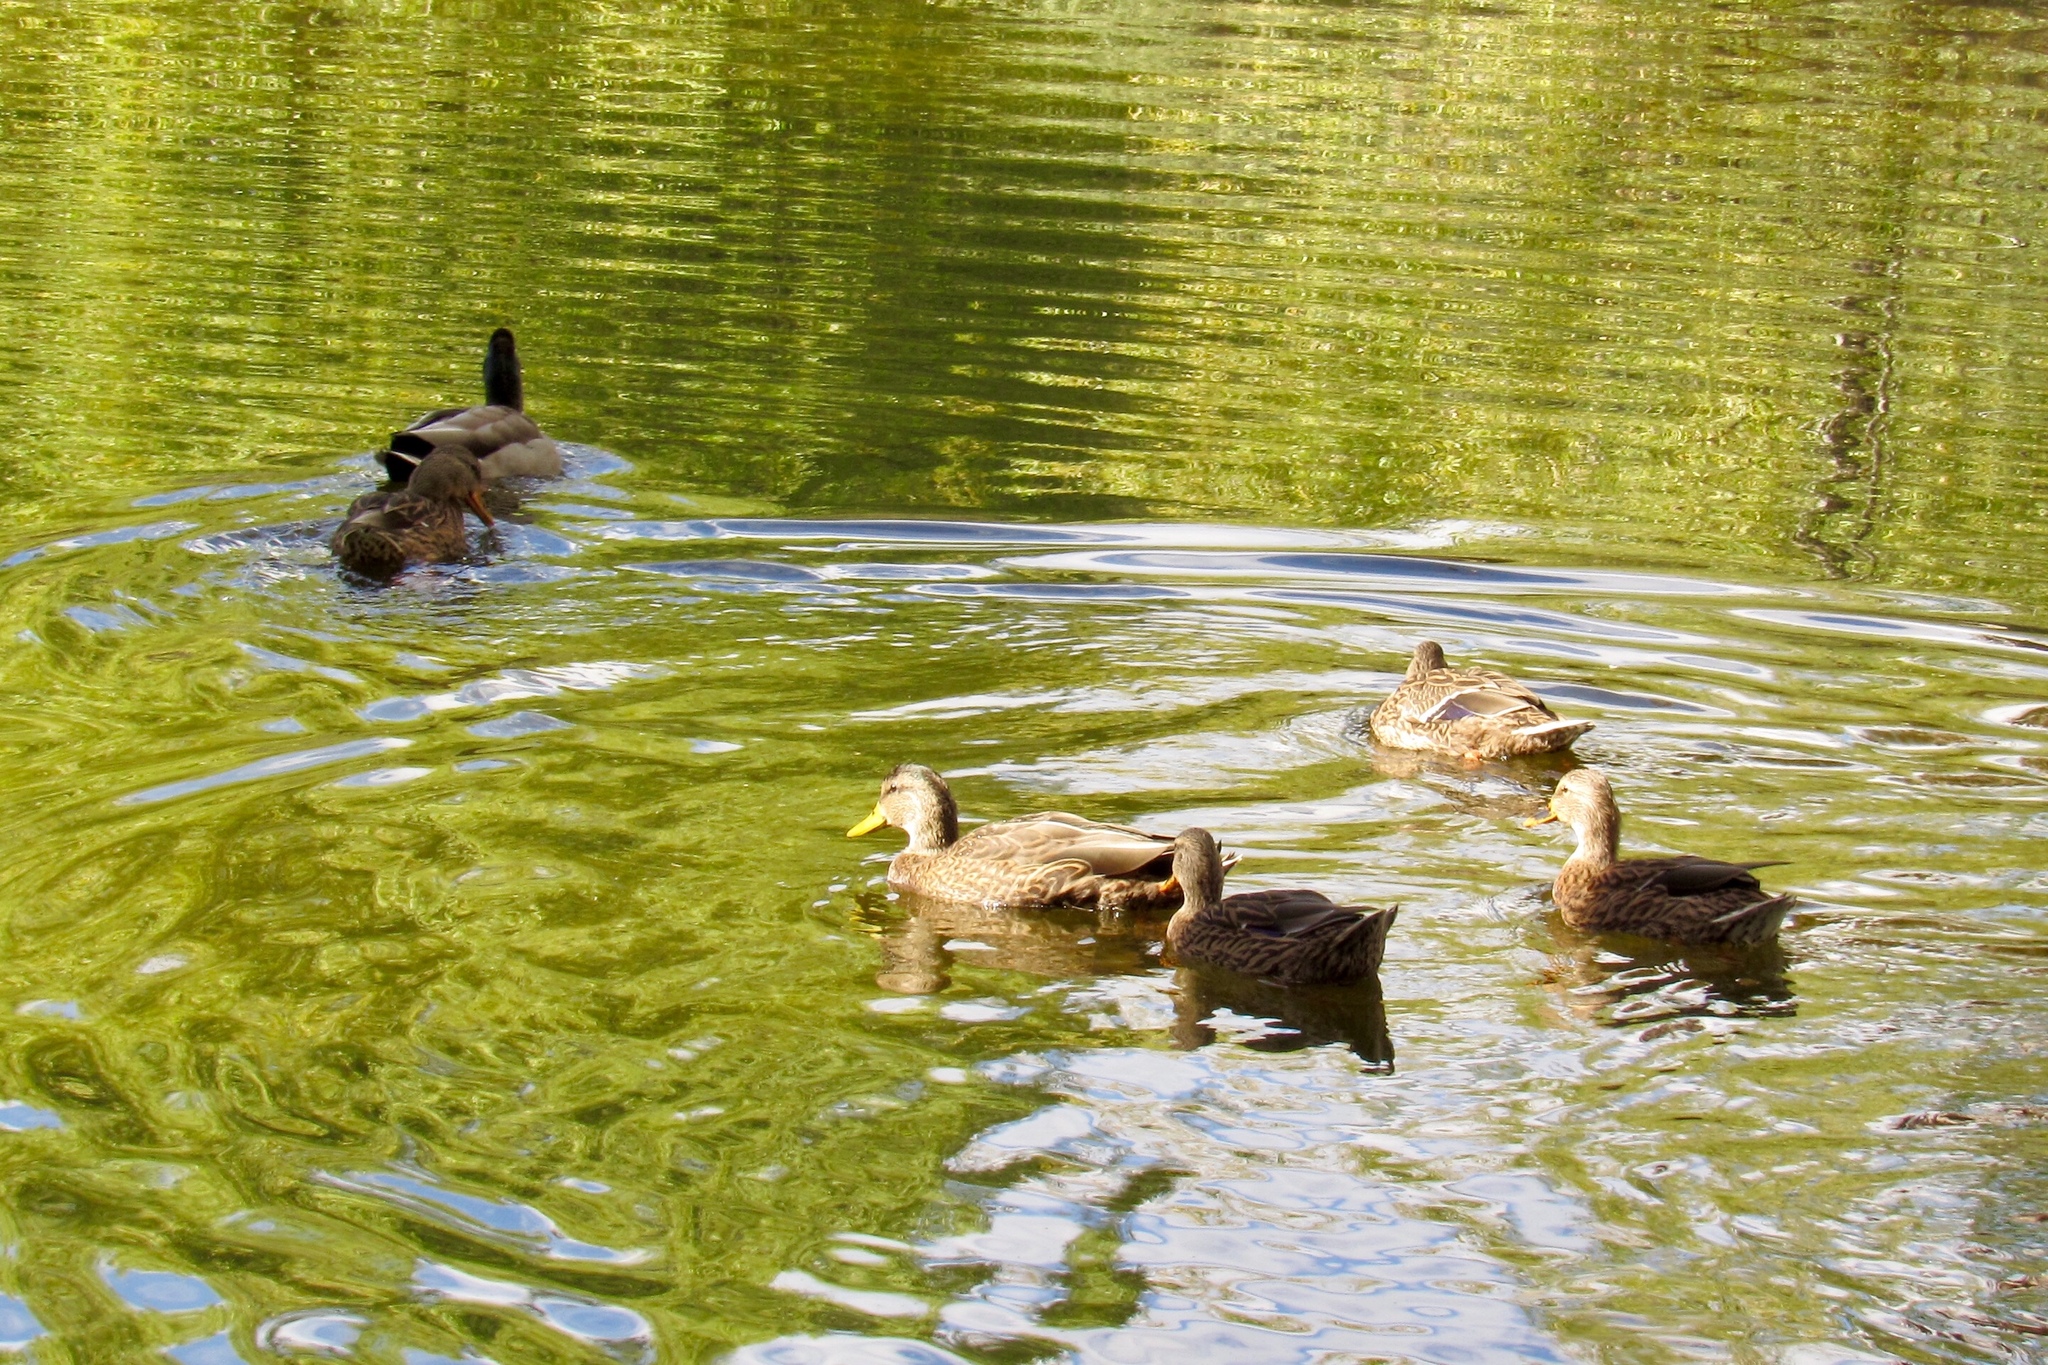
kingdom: Animalia
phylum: Chordata
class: Aves
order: Anseriformes
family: Anatidae
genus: Anas
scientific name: Anas platyrhynchos
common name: Mallard
